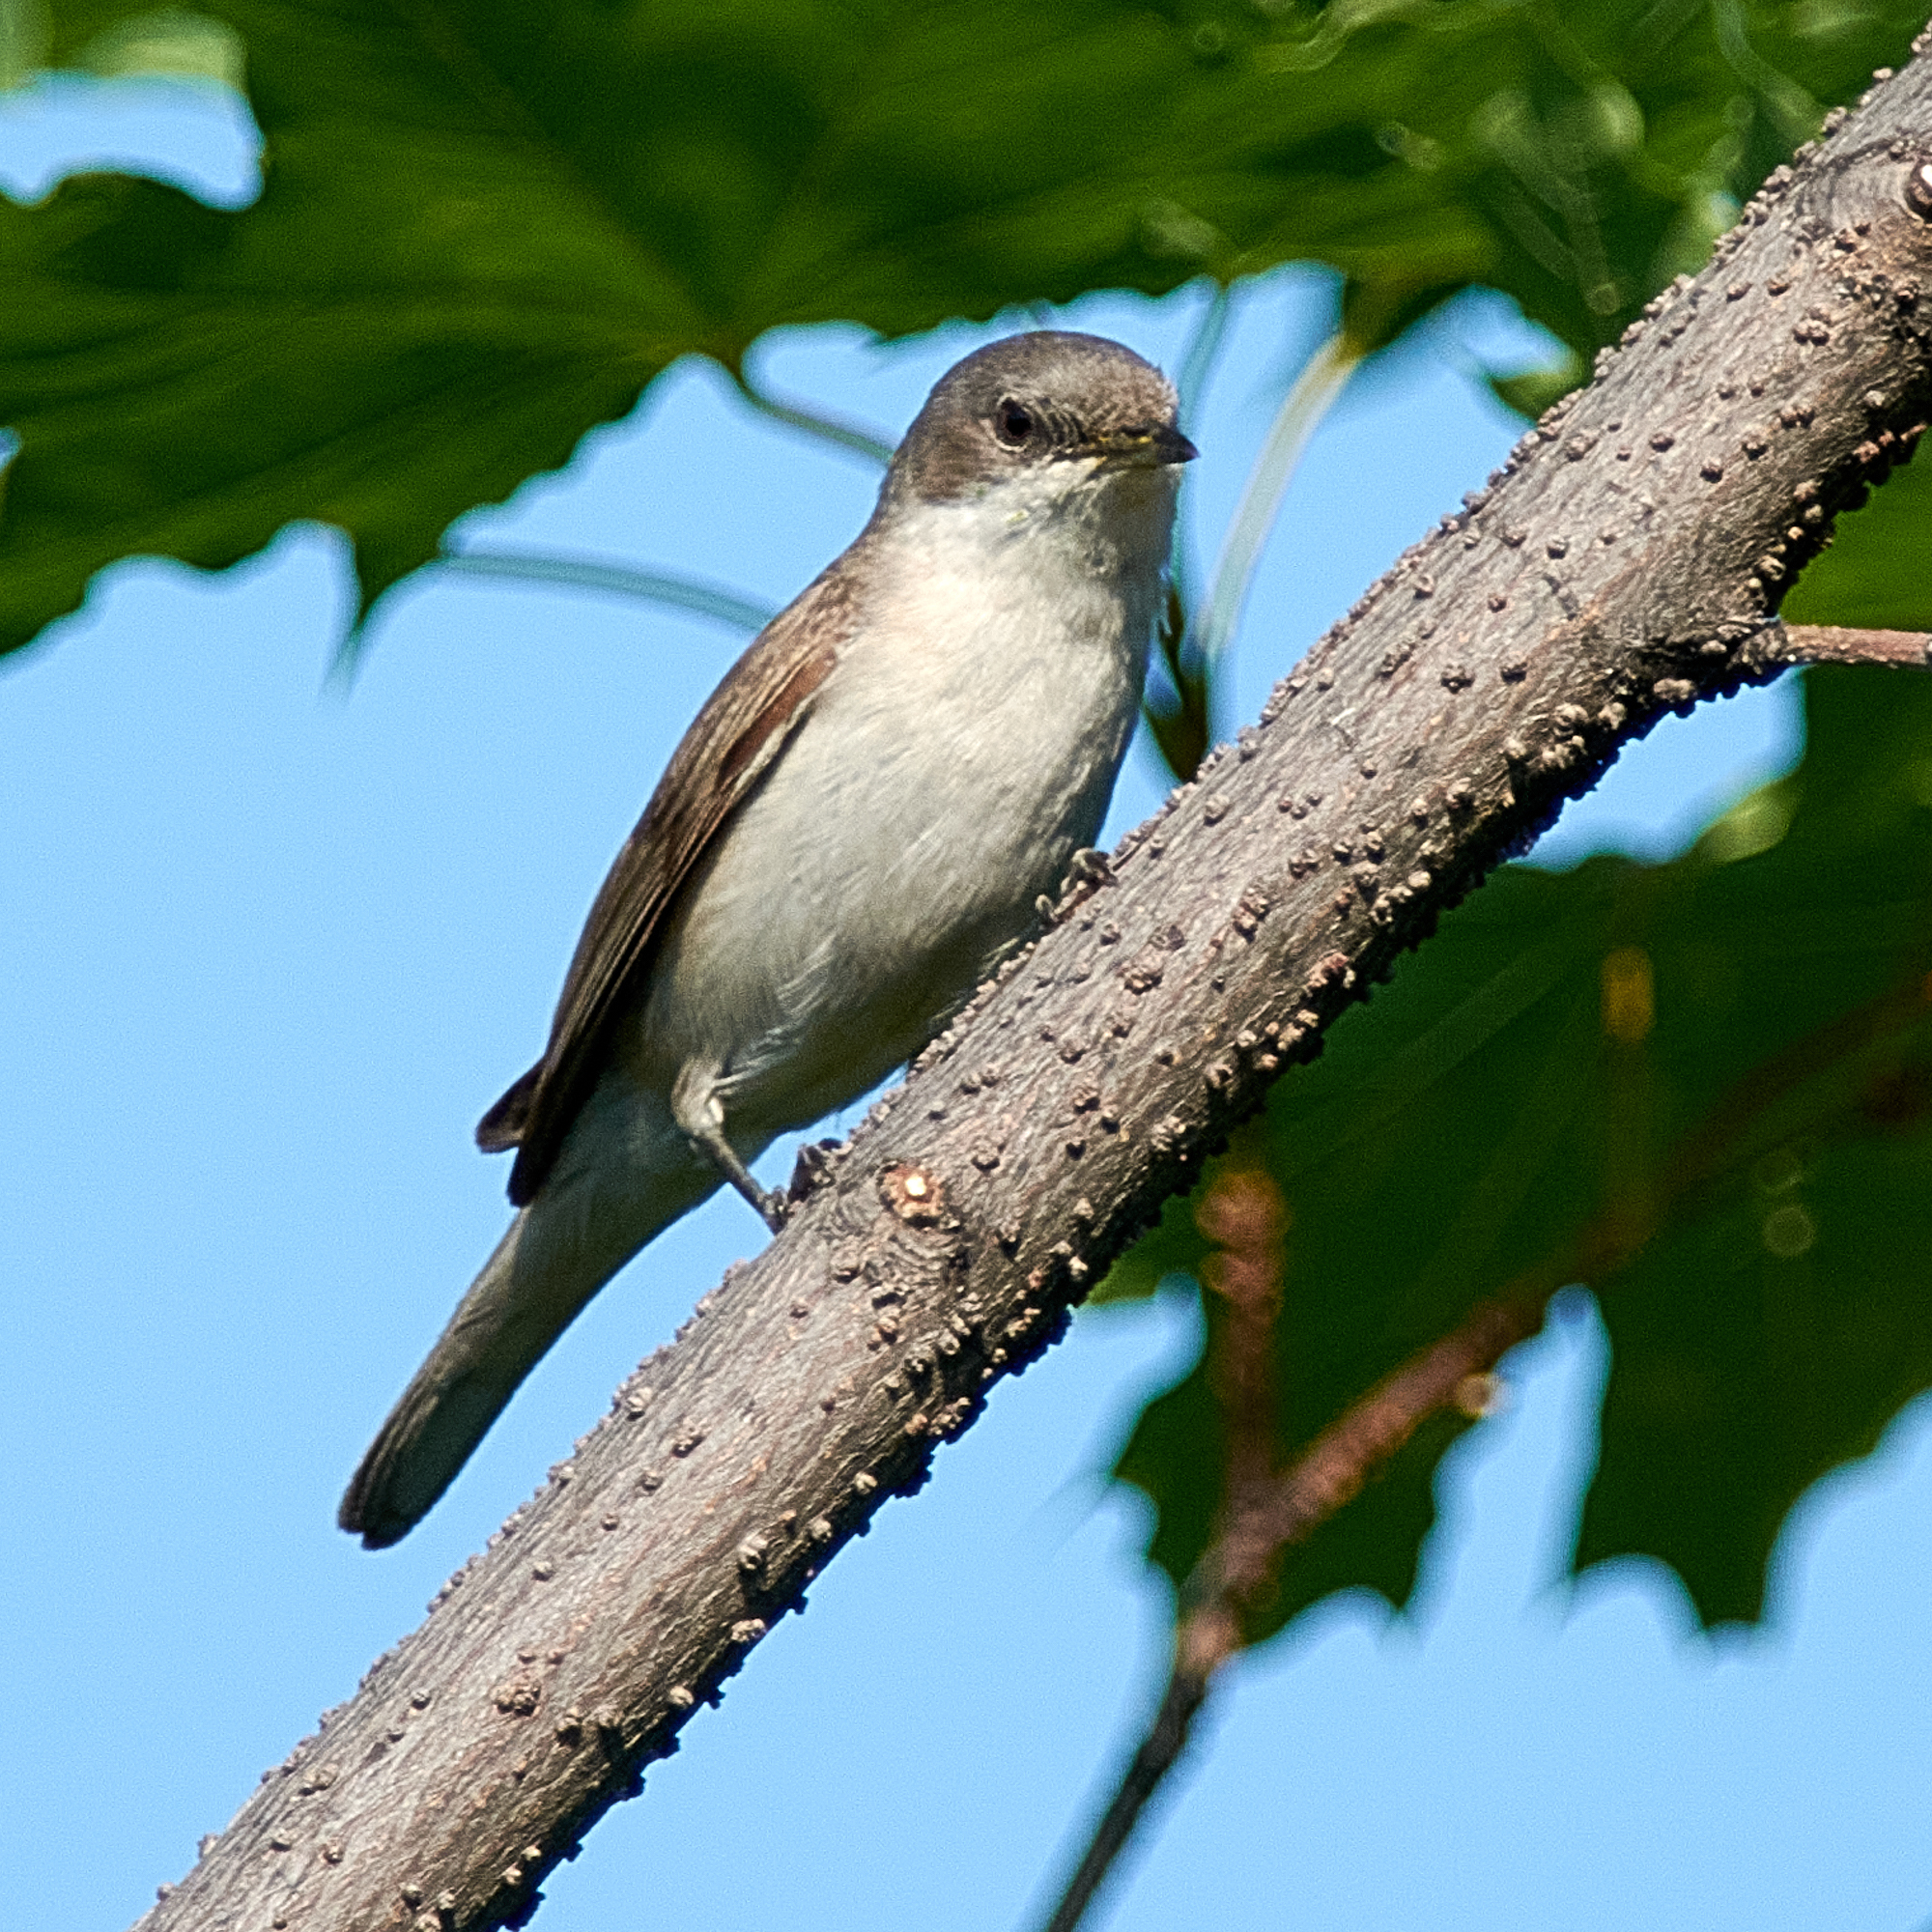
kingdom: Animalia
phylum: Chordata
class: Aves
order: Passeriformes
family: Sylviidae
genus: Sylvia
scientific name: Sylvia curruca
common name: Lesser whitethroat
